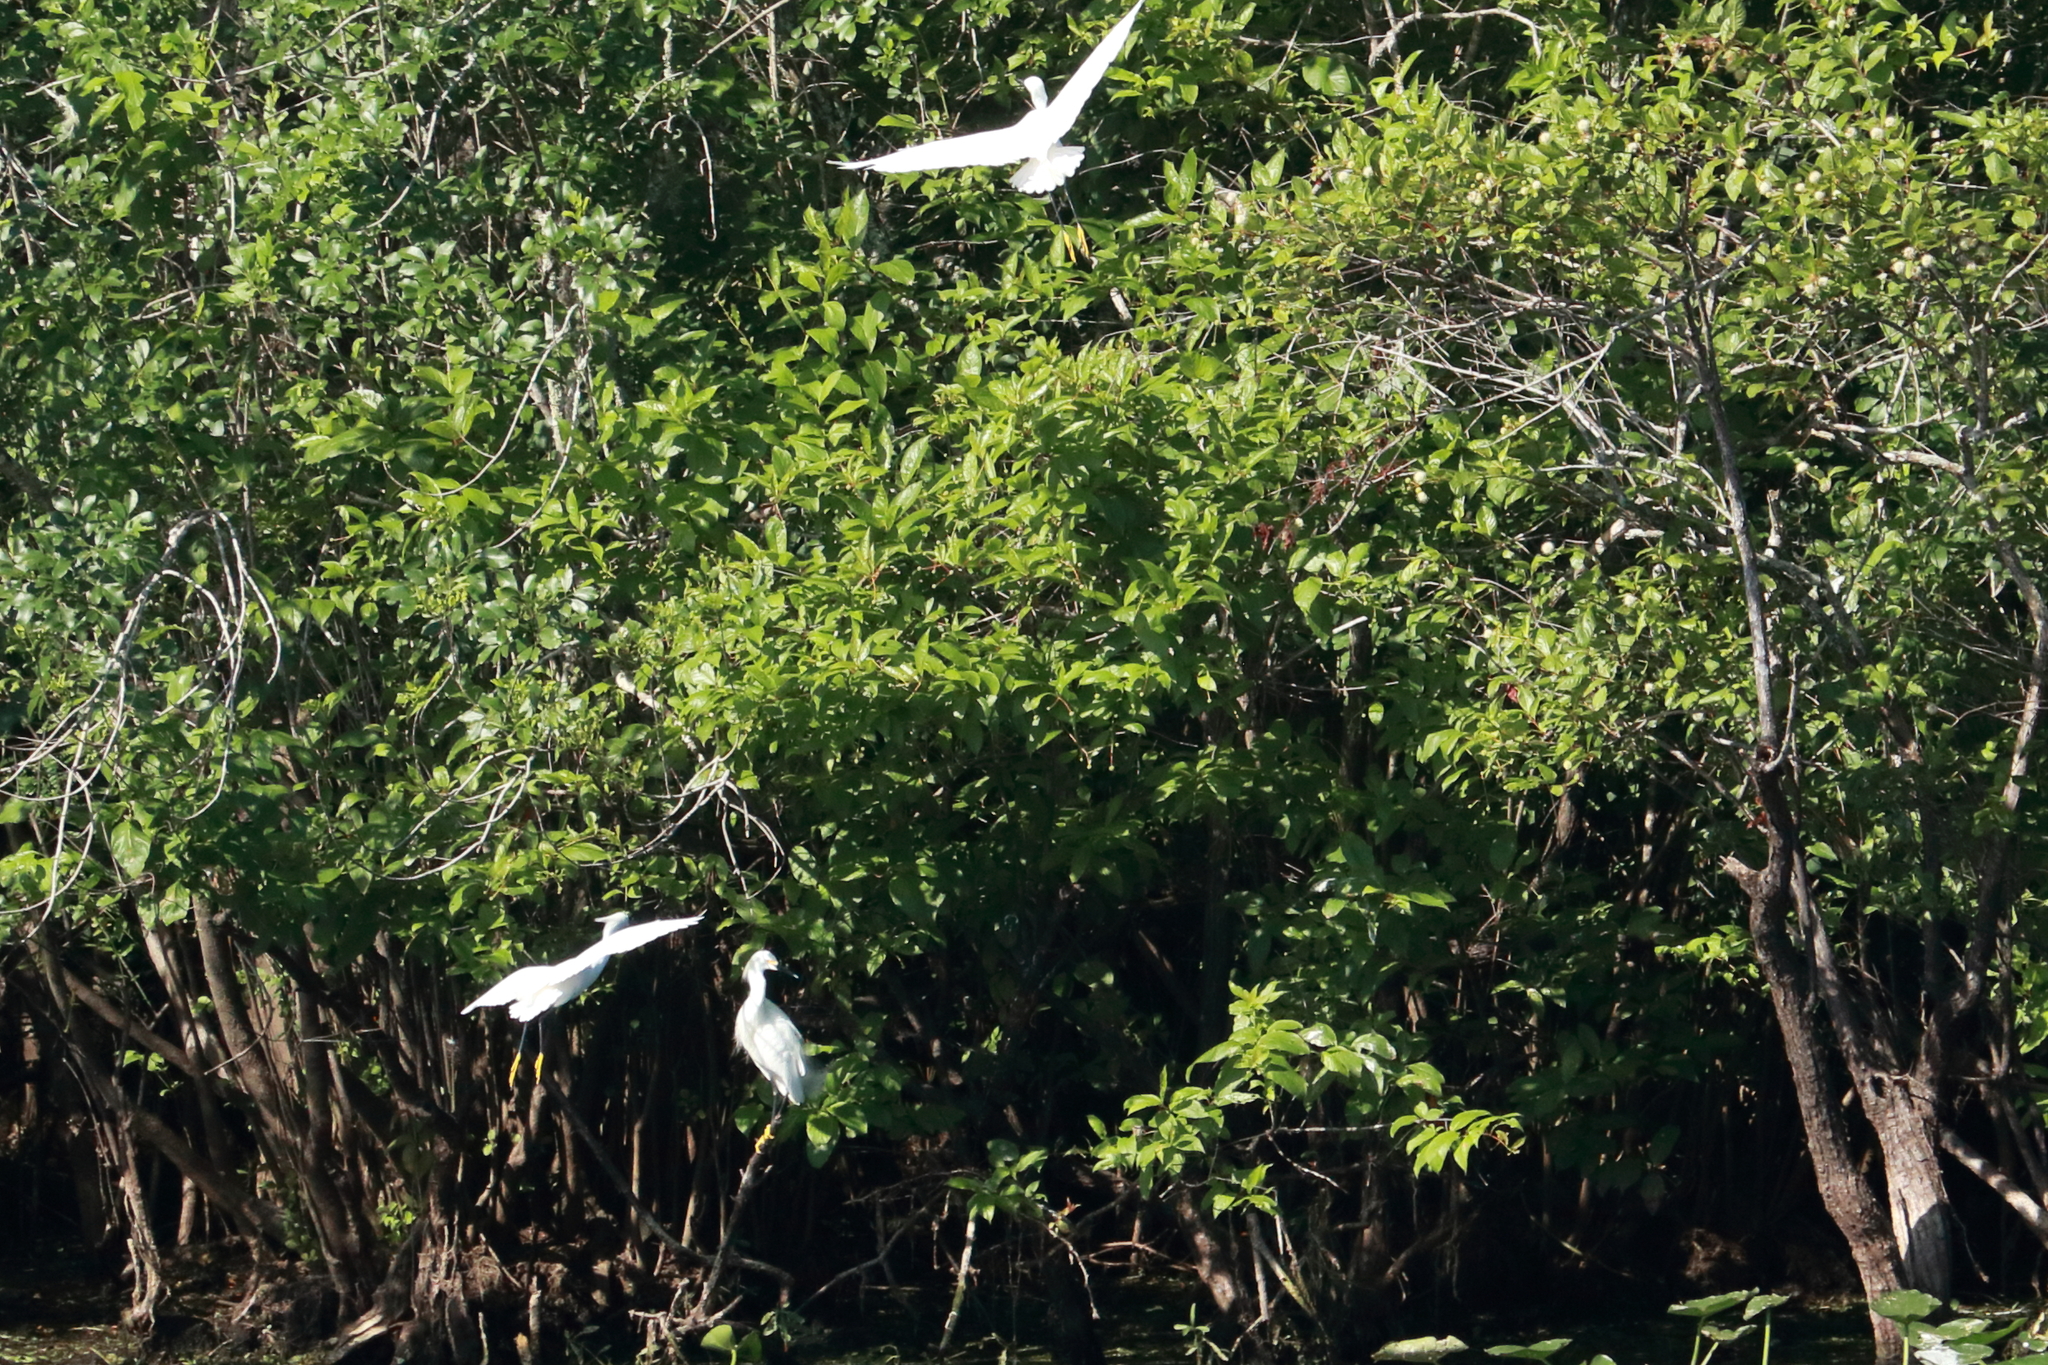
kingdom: Animalia
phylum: Chordata
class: Aves
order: Pelecaniformes
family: Ardeidae
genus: Egretta
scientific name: Egretta thula
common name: Snowy egret
